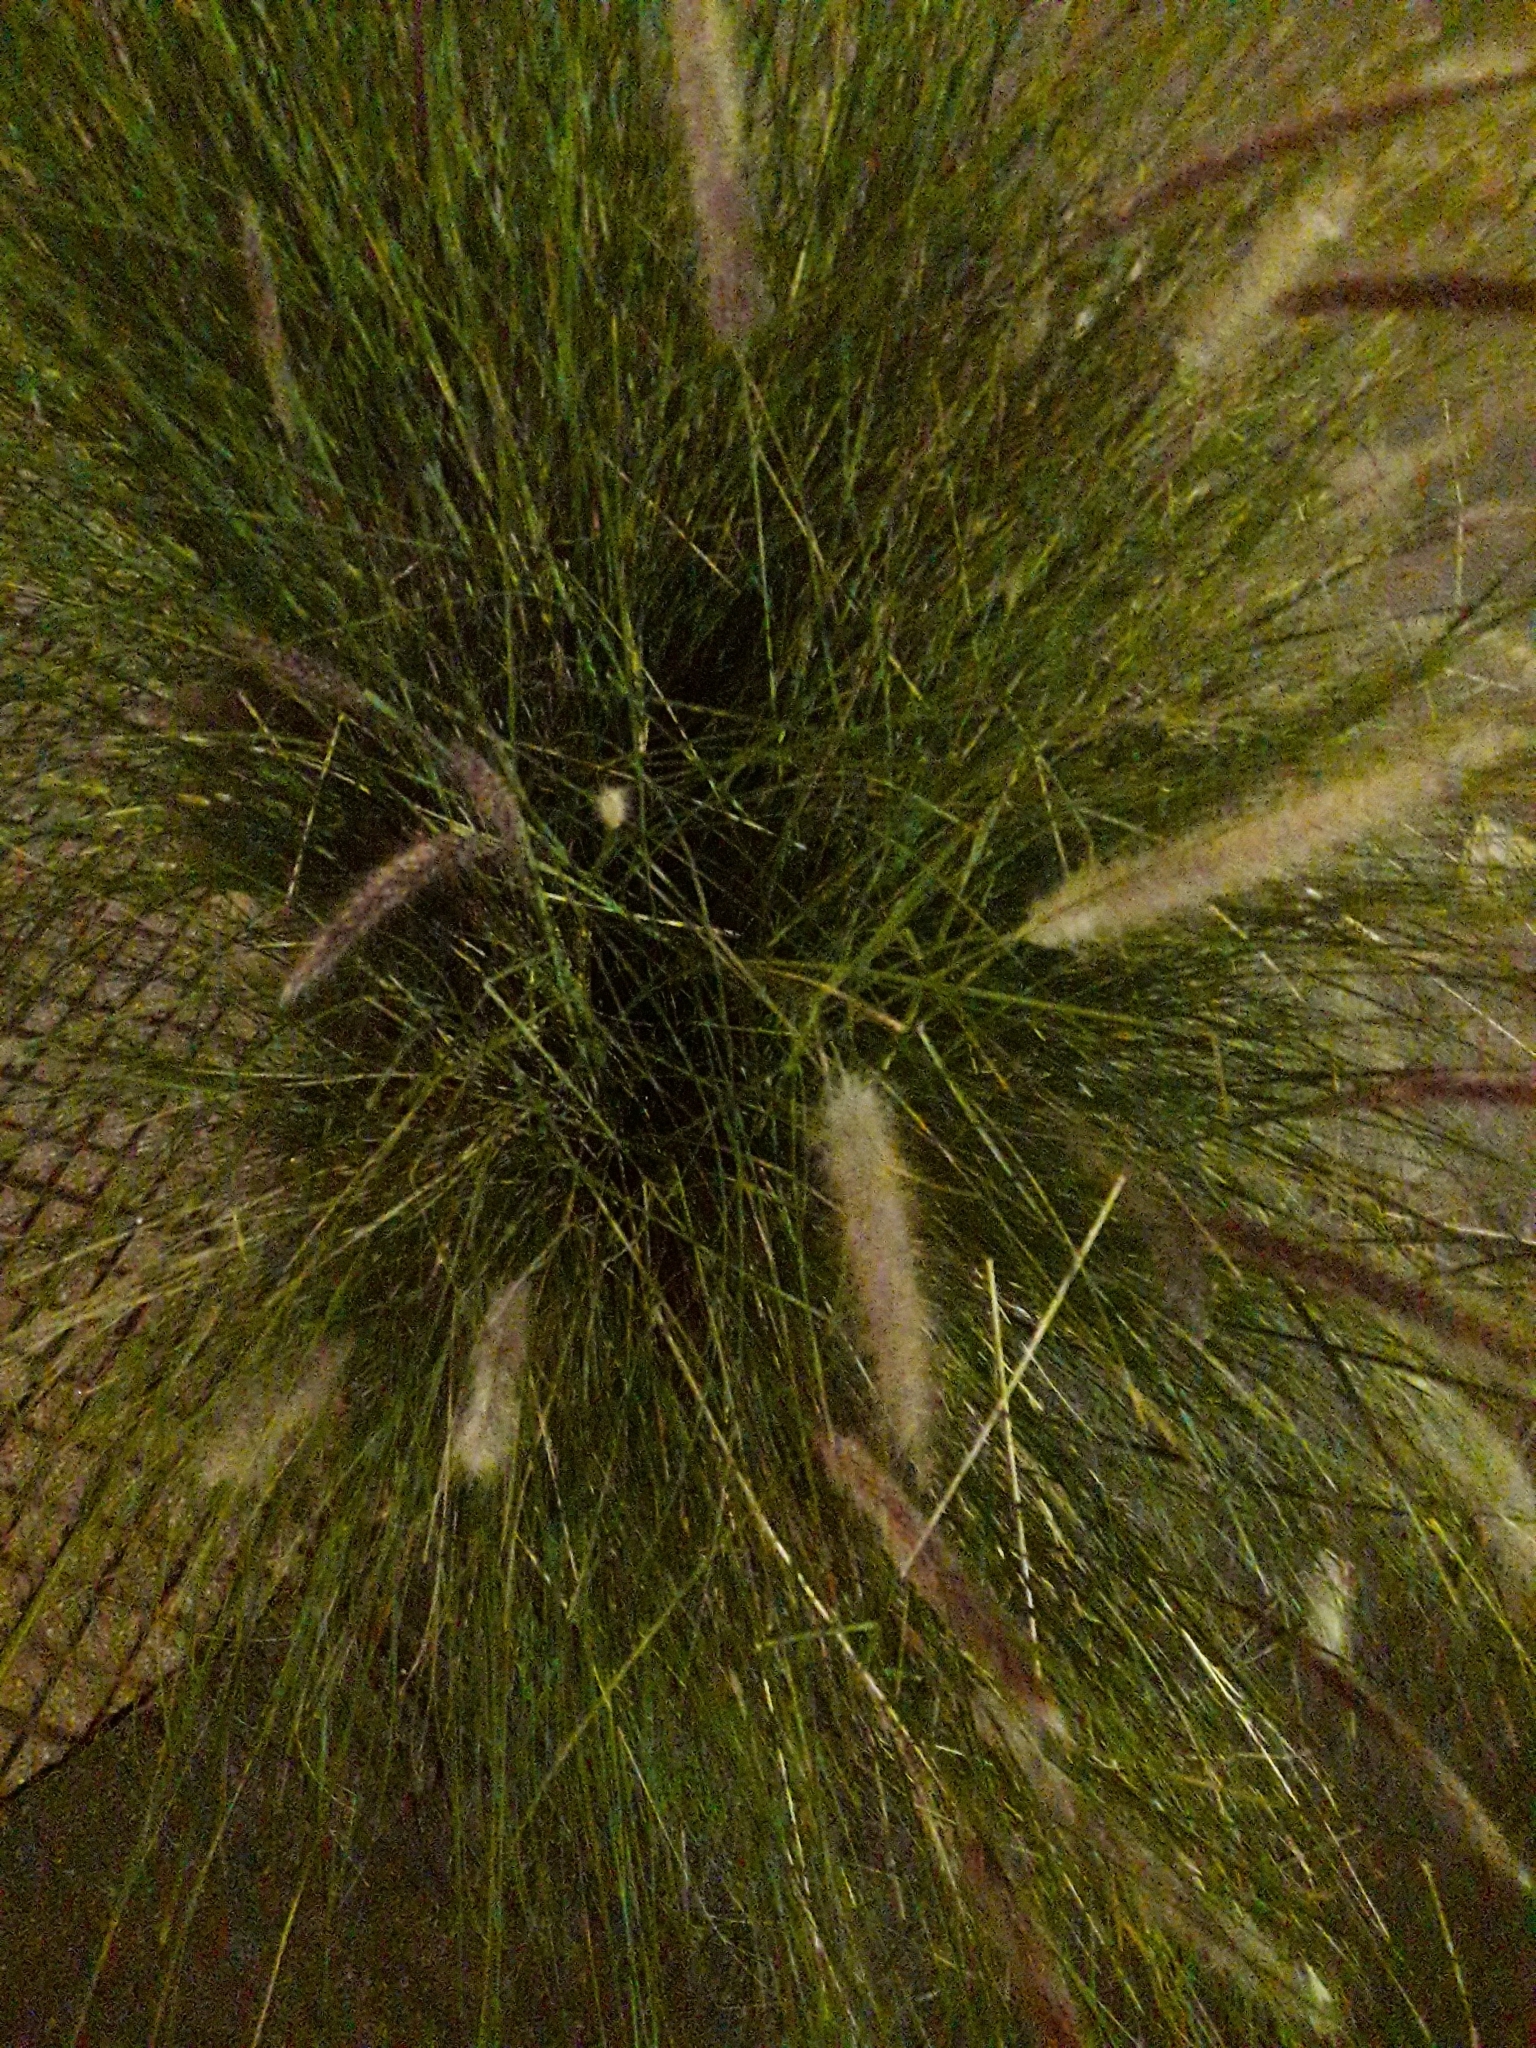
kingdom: Plantae
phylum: Tracheophyta
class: Liliopsida
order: Poales
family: Poaceae
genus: Cenchrus
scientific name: Cenchrus setaceus
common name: Crimson fountaingrass
